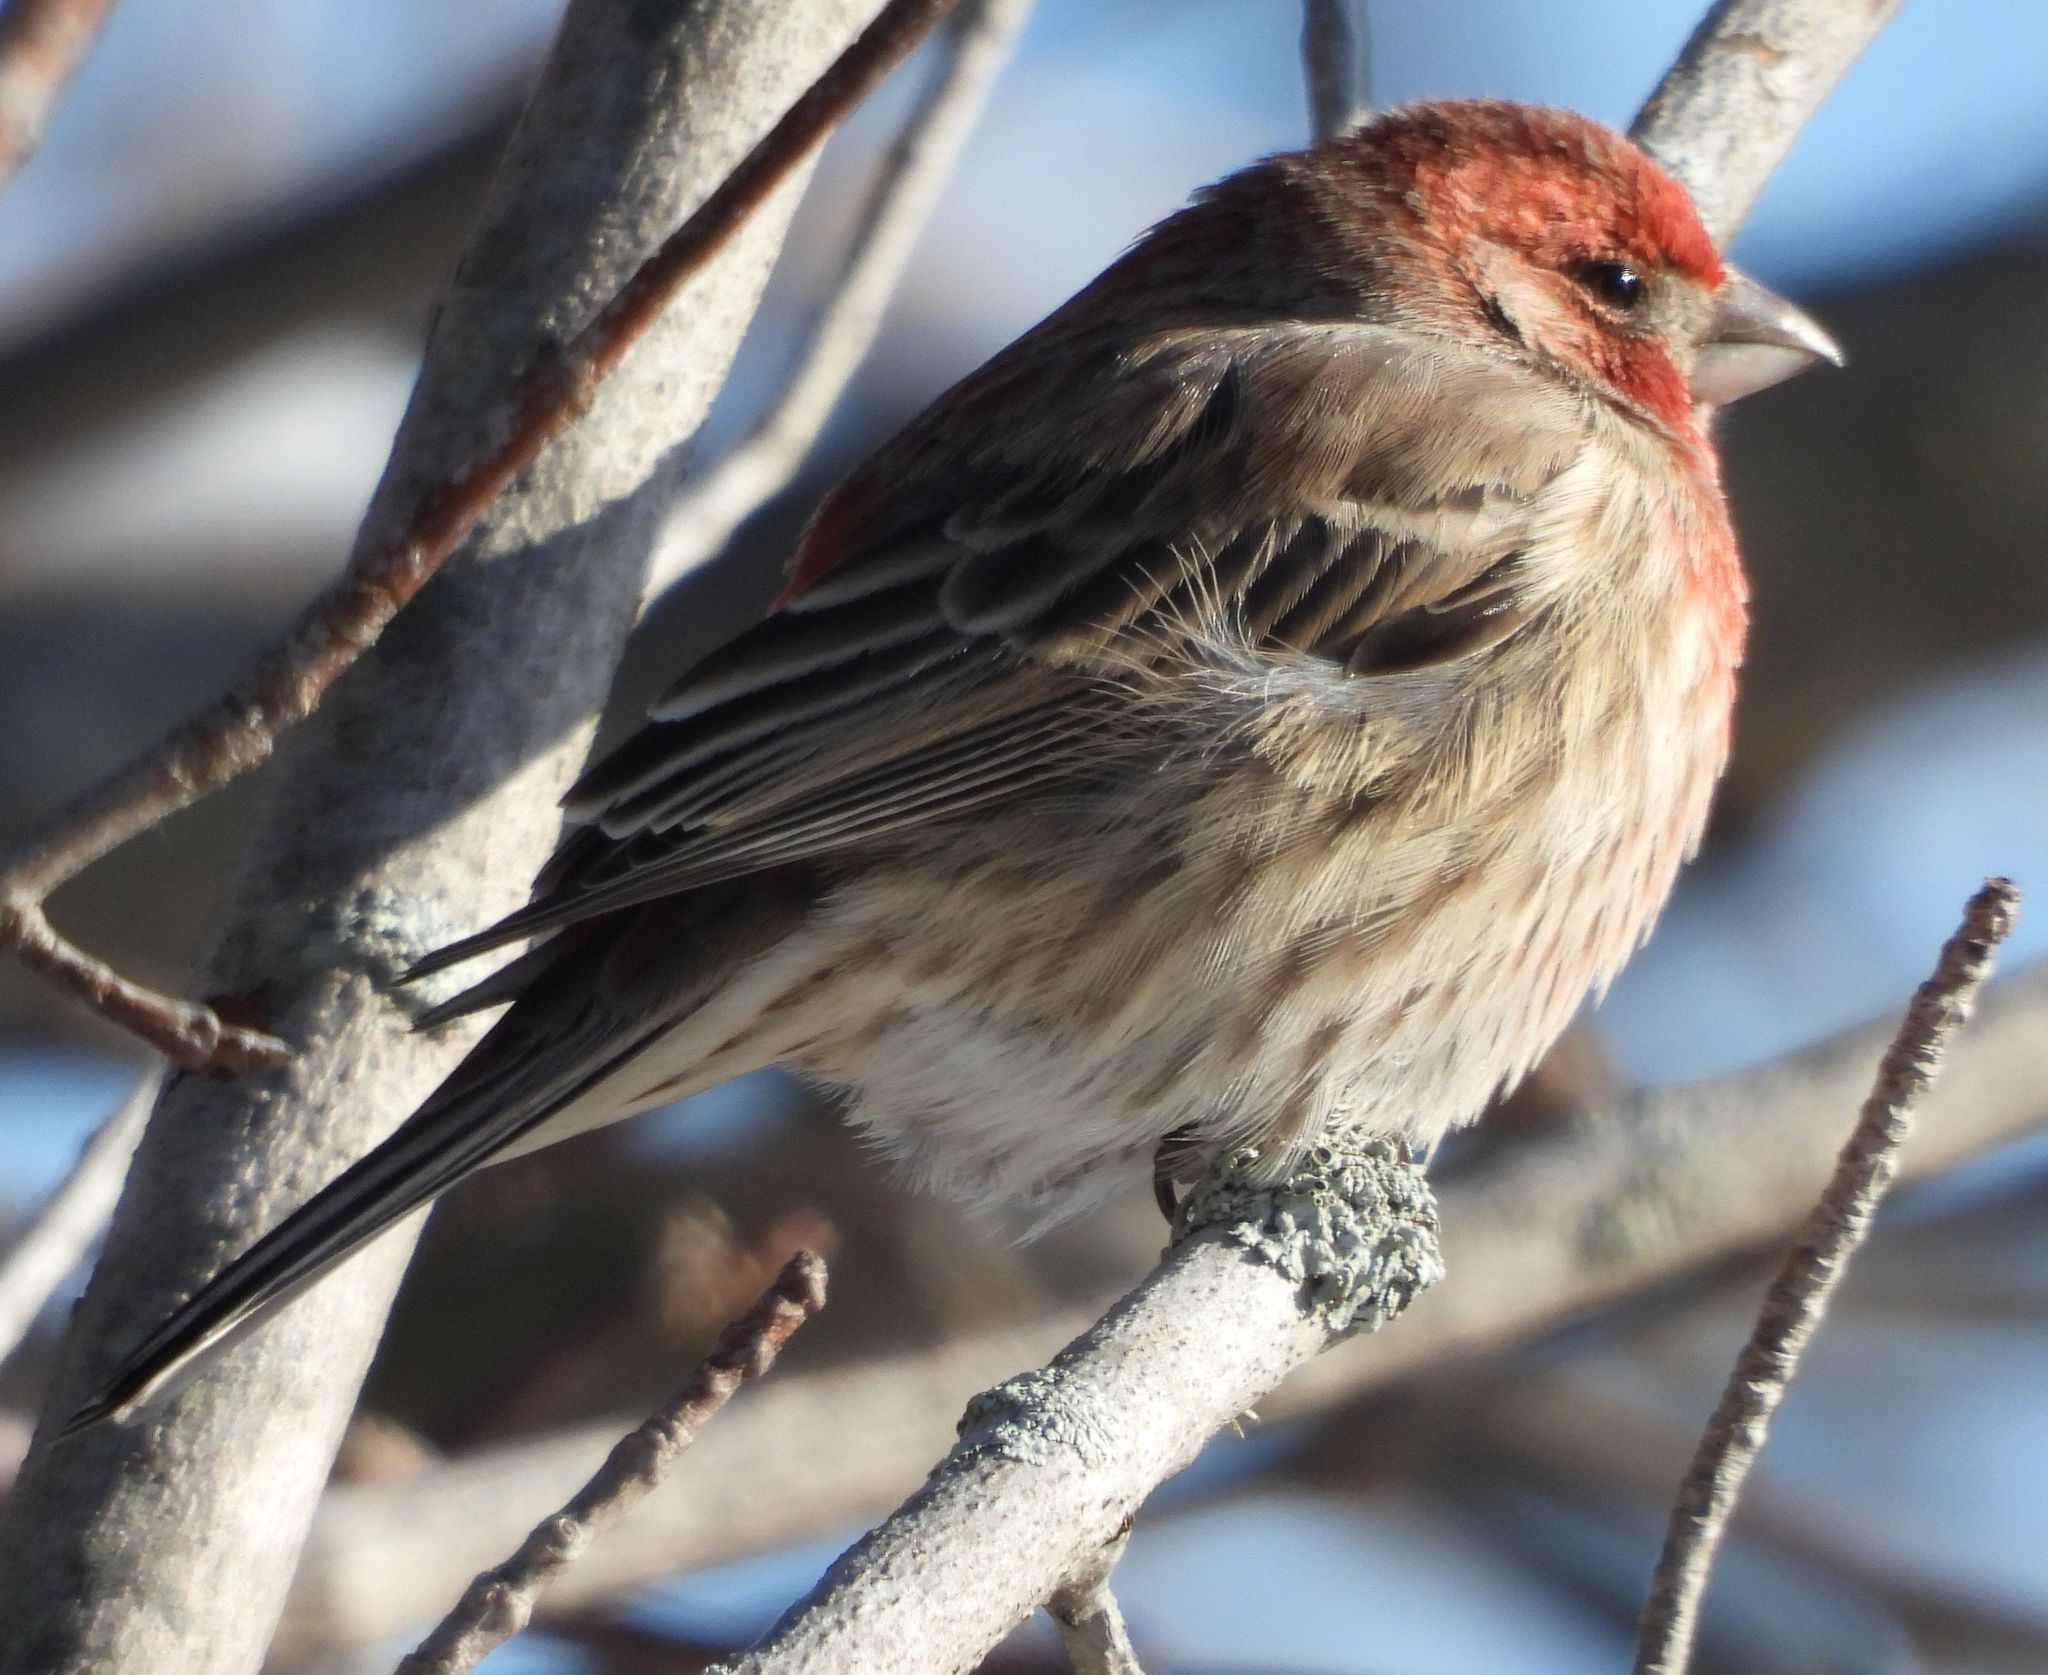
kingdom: Animalia
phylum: Chordata
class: Aves
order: Passeriformes
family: Fringillidae
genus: Haemorhous
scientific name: Haemorhous mexicanus
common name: House finch
